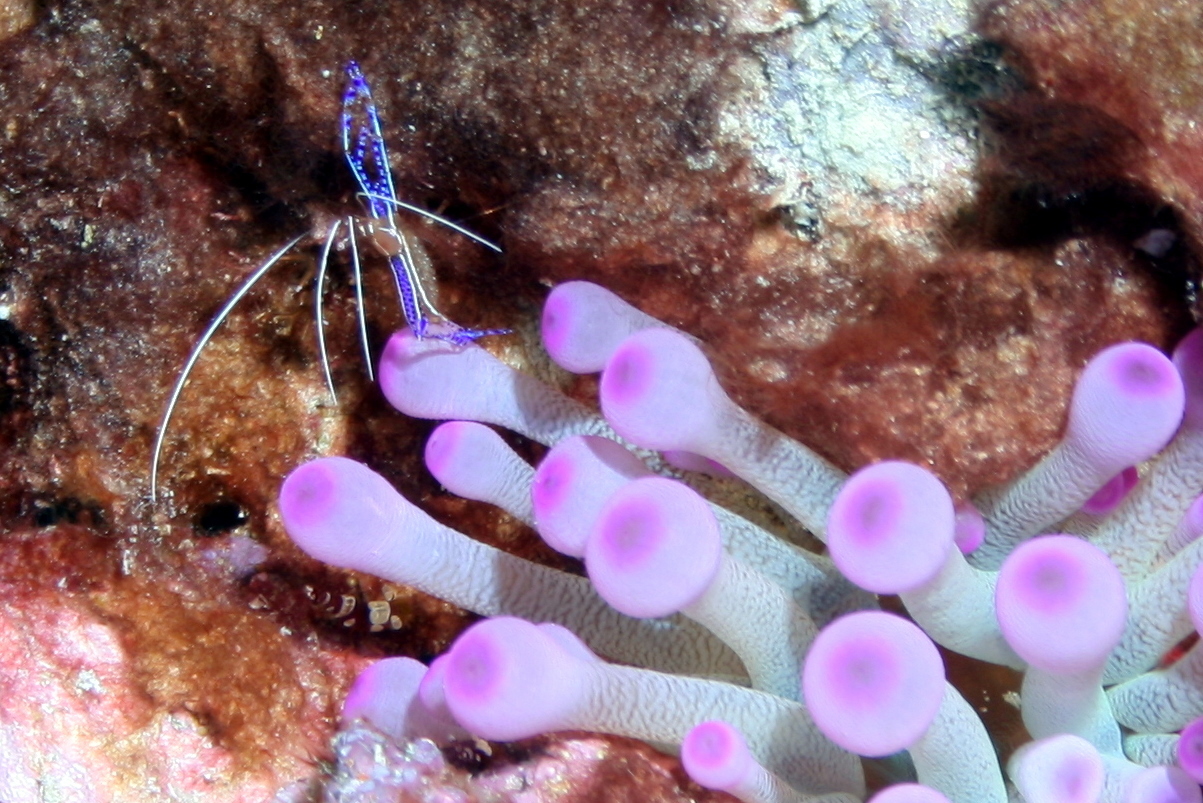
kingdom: Animalia
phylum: Arthropoda
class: Malacostraca
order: Decapoda
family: Palaemonidae
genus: Ancylomenes
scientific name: Ancylomenes pedersoni
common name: Pederson's cleaning shrimp
